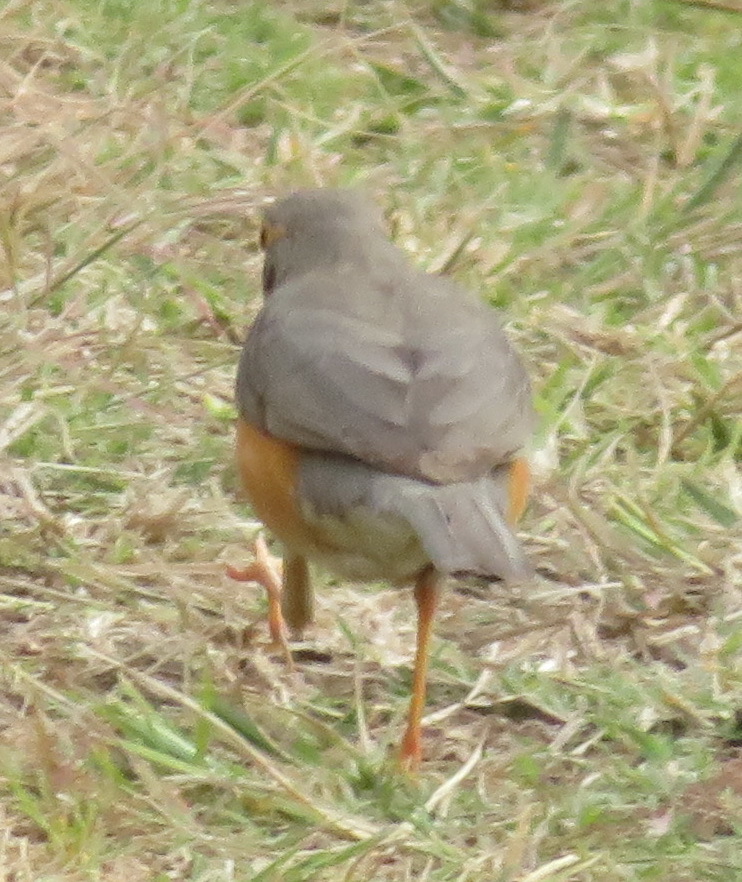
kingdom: Animalia
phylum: Chordata
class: Aves
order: Passeriformes
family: Turdidae
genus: Turdus
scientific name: Turdus libonyana
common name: Kurrichane thrush
